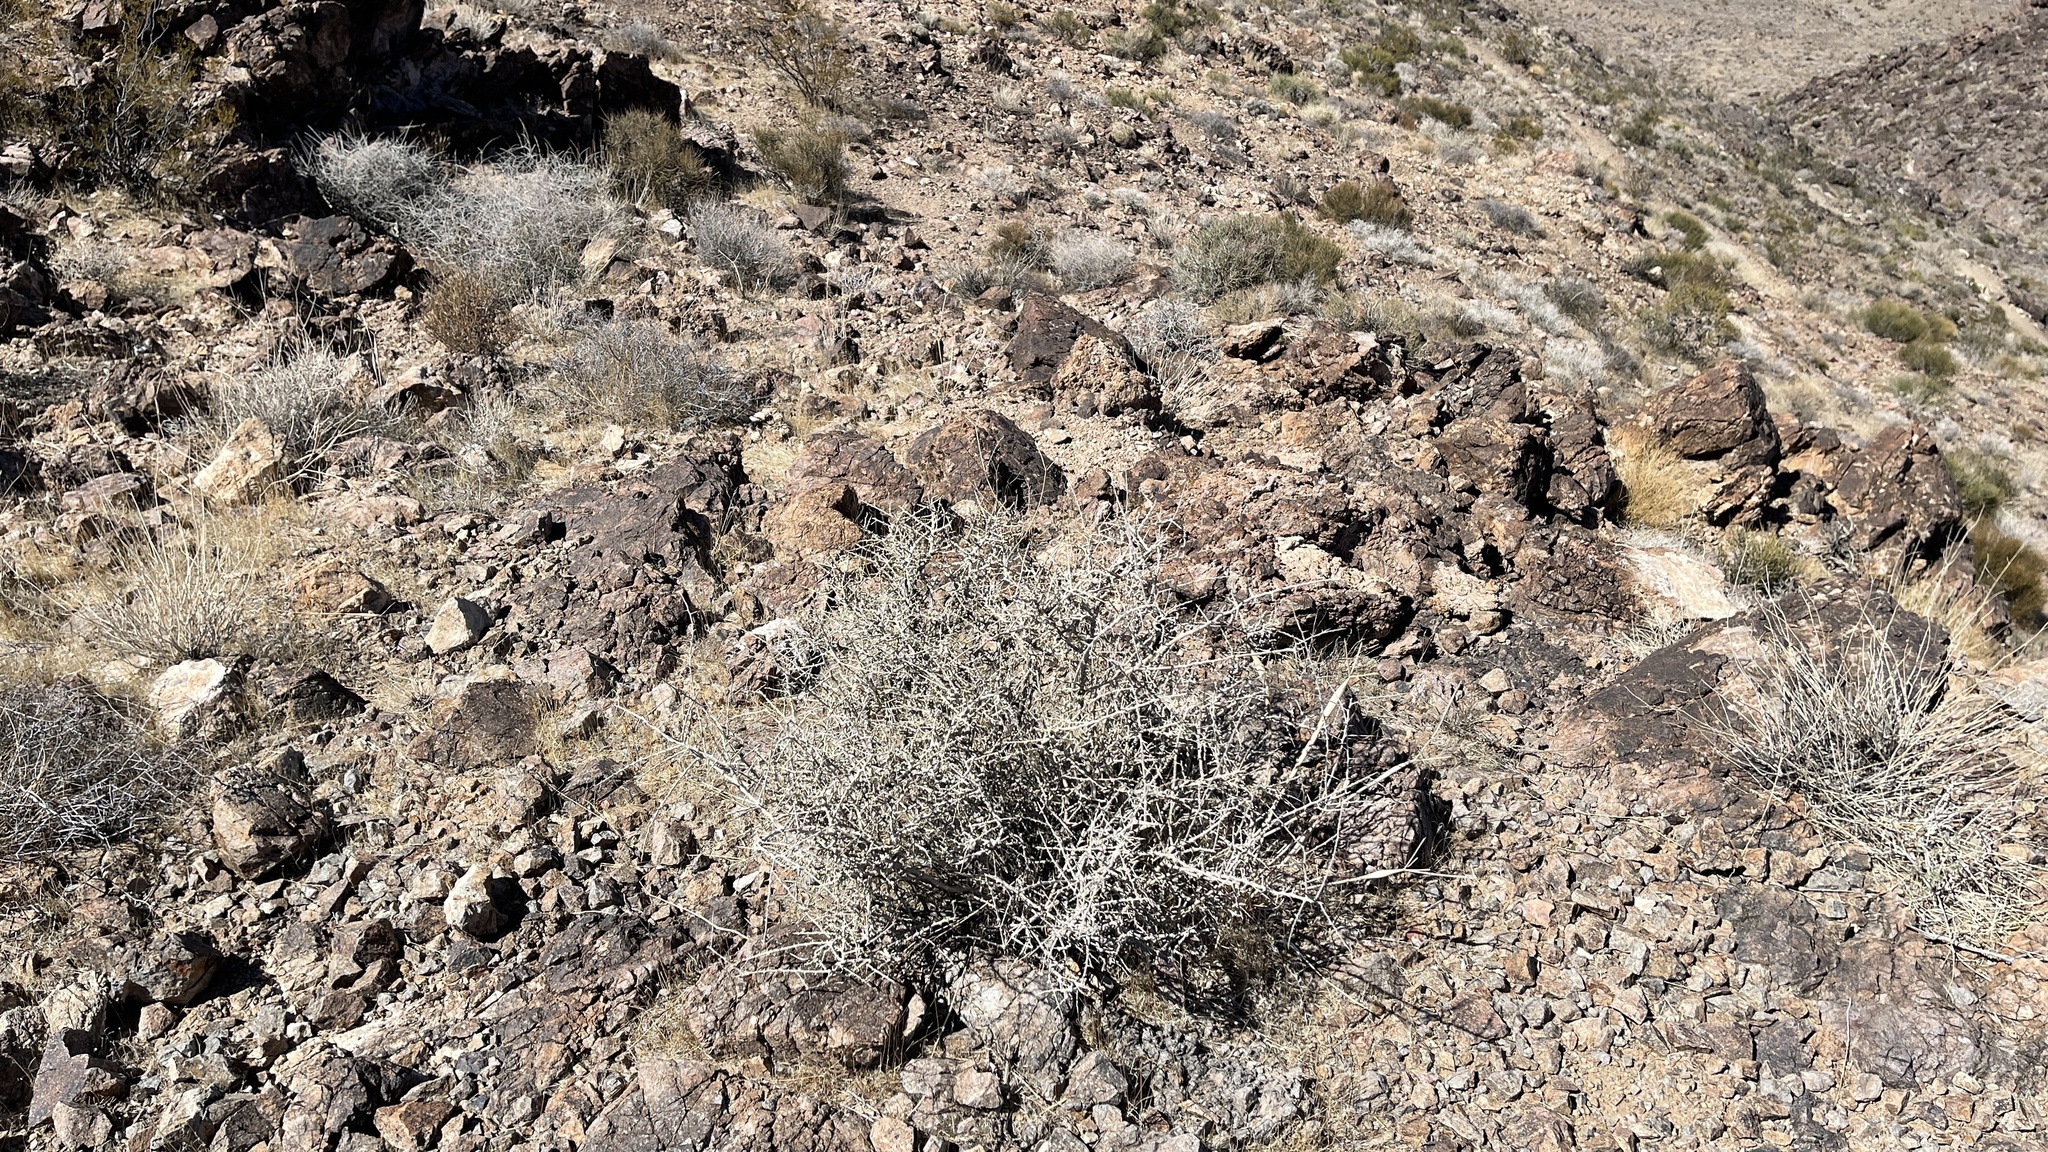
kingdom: Plantae
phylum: Tracheophyta
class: Magnoliopsida
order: Rosales
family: Rosaceae
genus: Prunus
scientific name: Prunus fasciculata
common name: Desert almond
